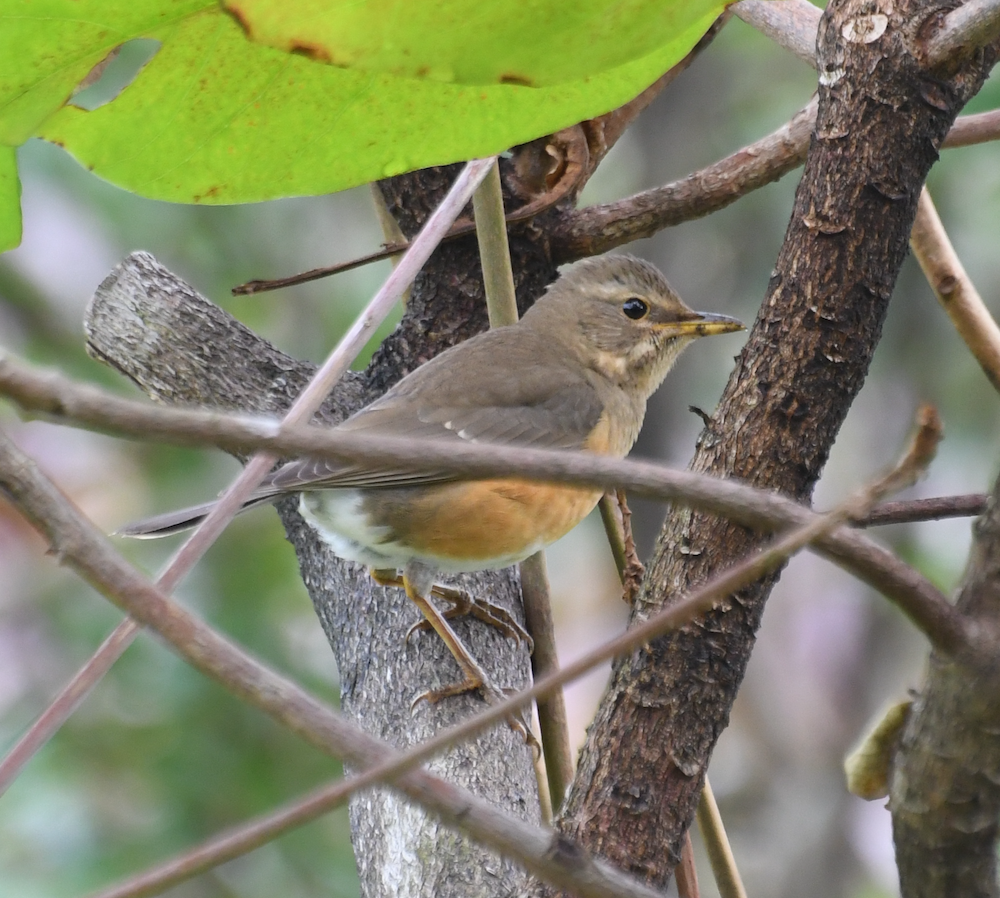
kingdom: Animalia
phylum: Chordata
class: Aves
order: Passeriformes
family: Turdidae
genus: Turdus
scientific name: Turdus chrysolaus
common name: Brown-headed thrush
